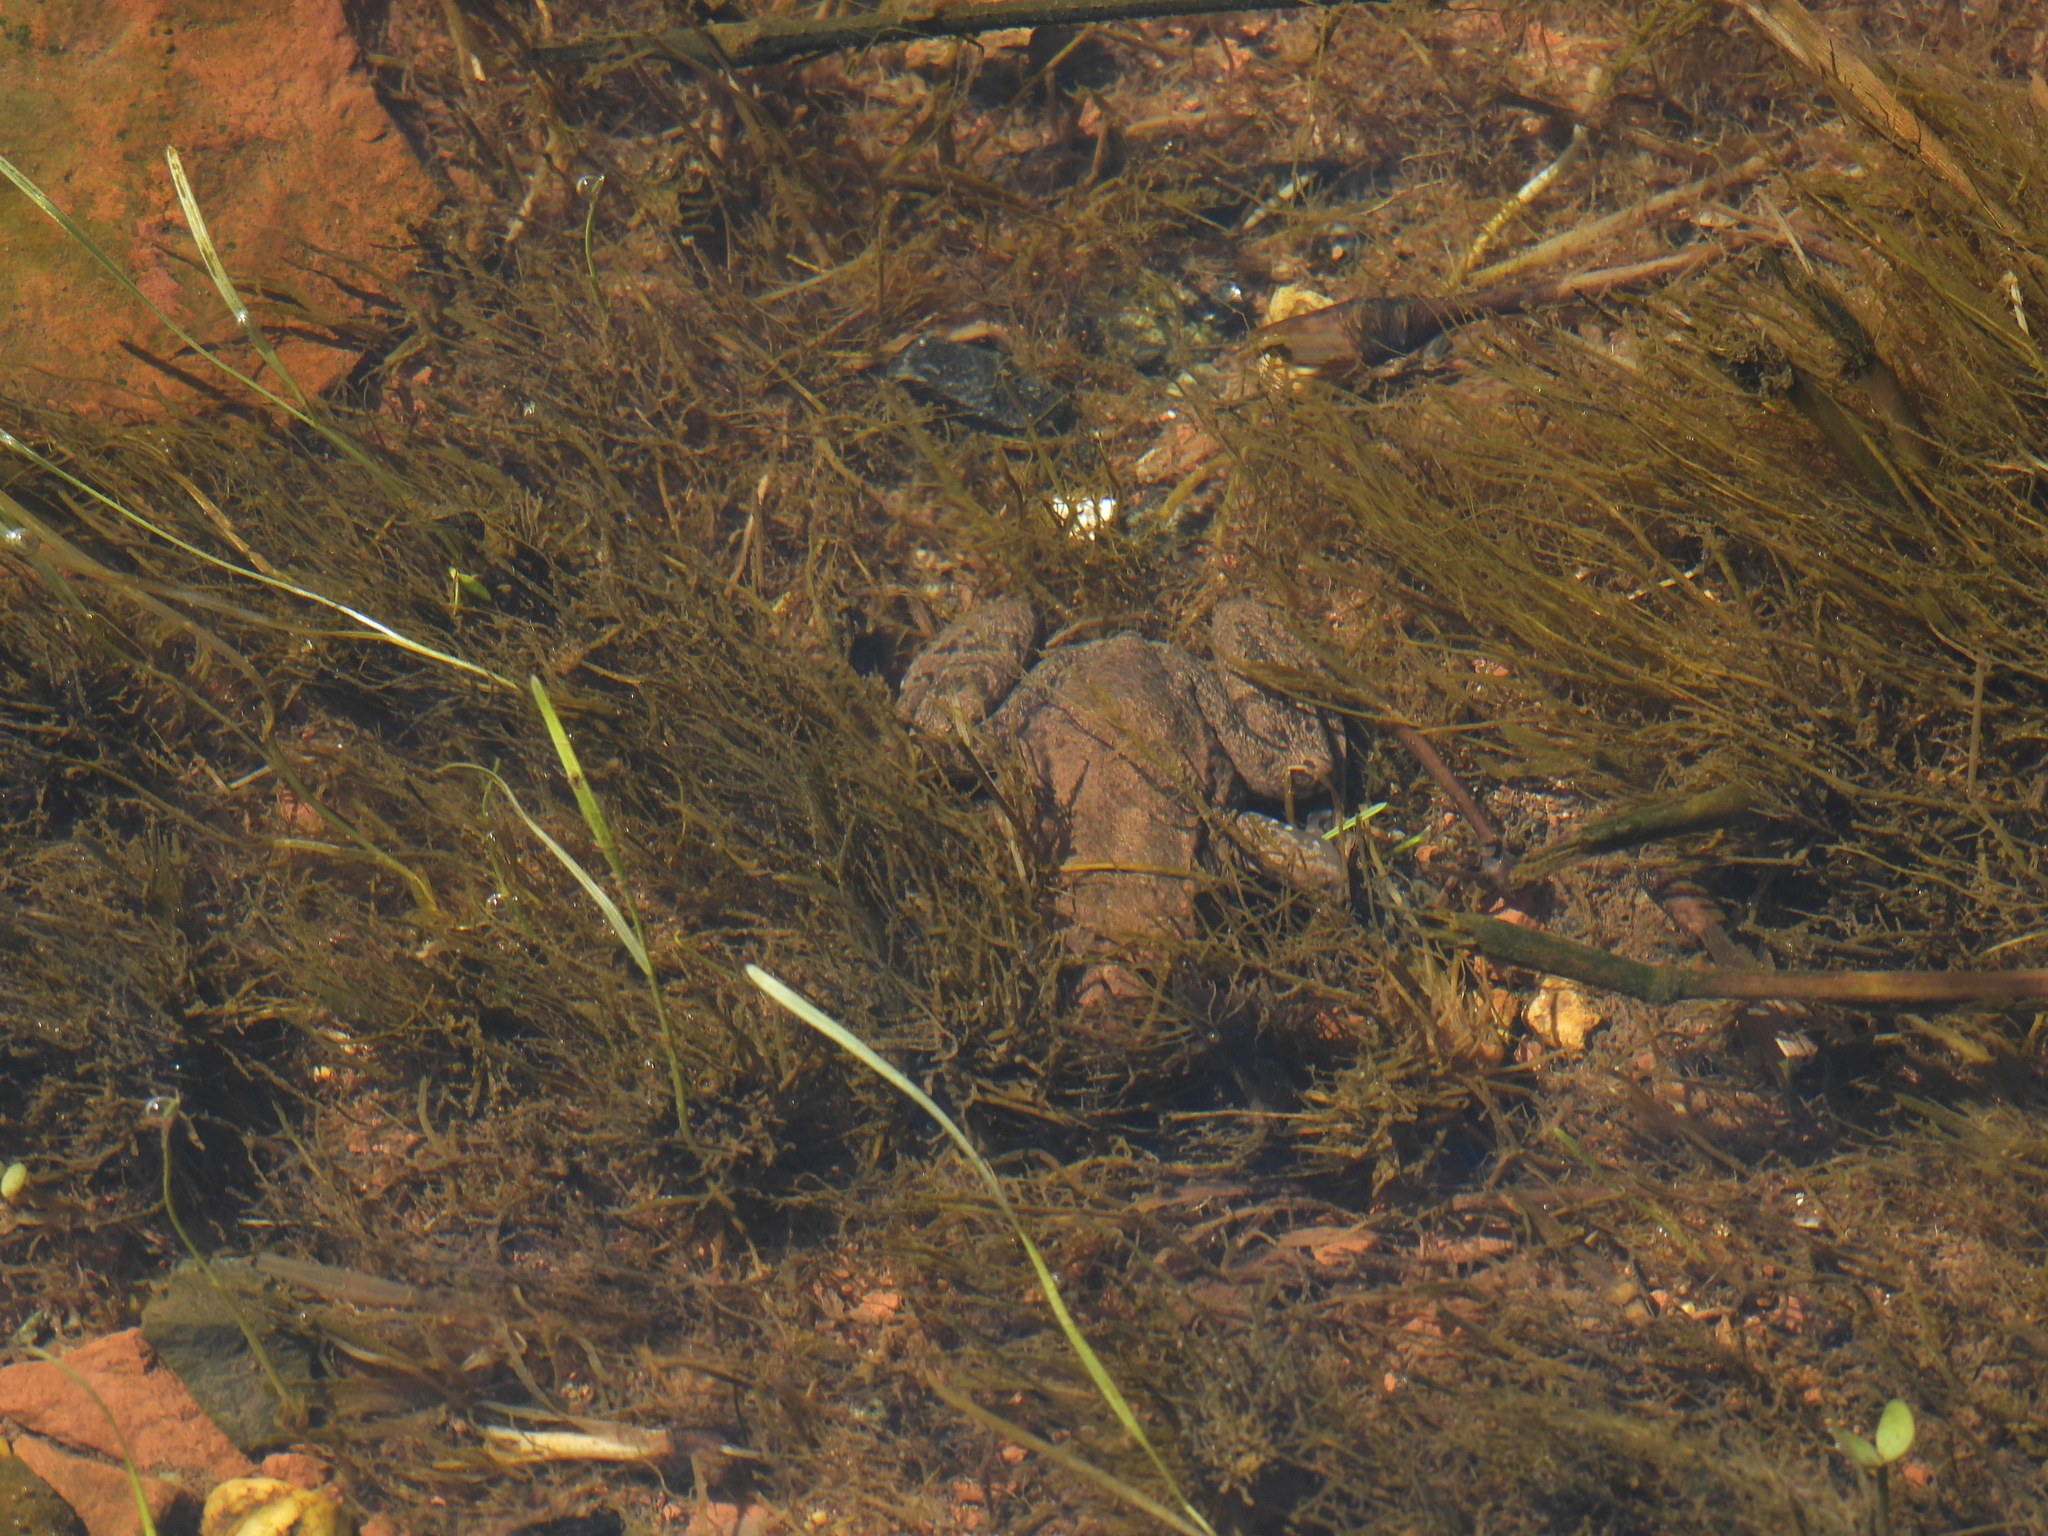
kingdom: Animalia
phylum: Chordata
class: Amphibia
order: Anura
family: Ranidae
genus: Lithobates
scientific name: Lithobates sylvaticus
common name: Wood frog
